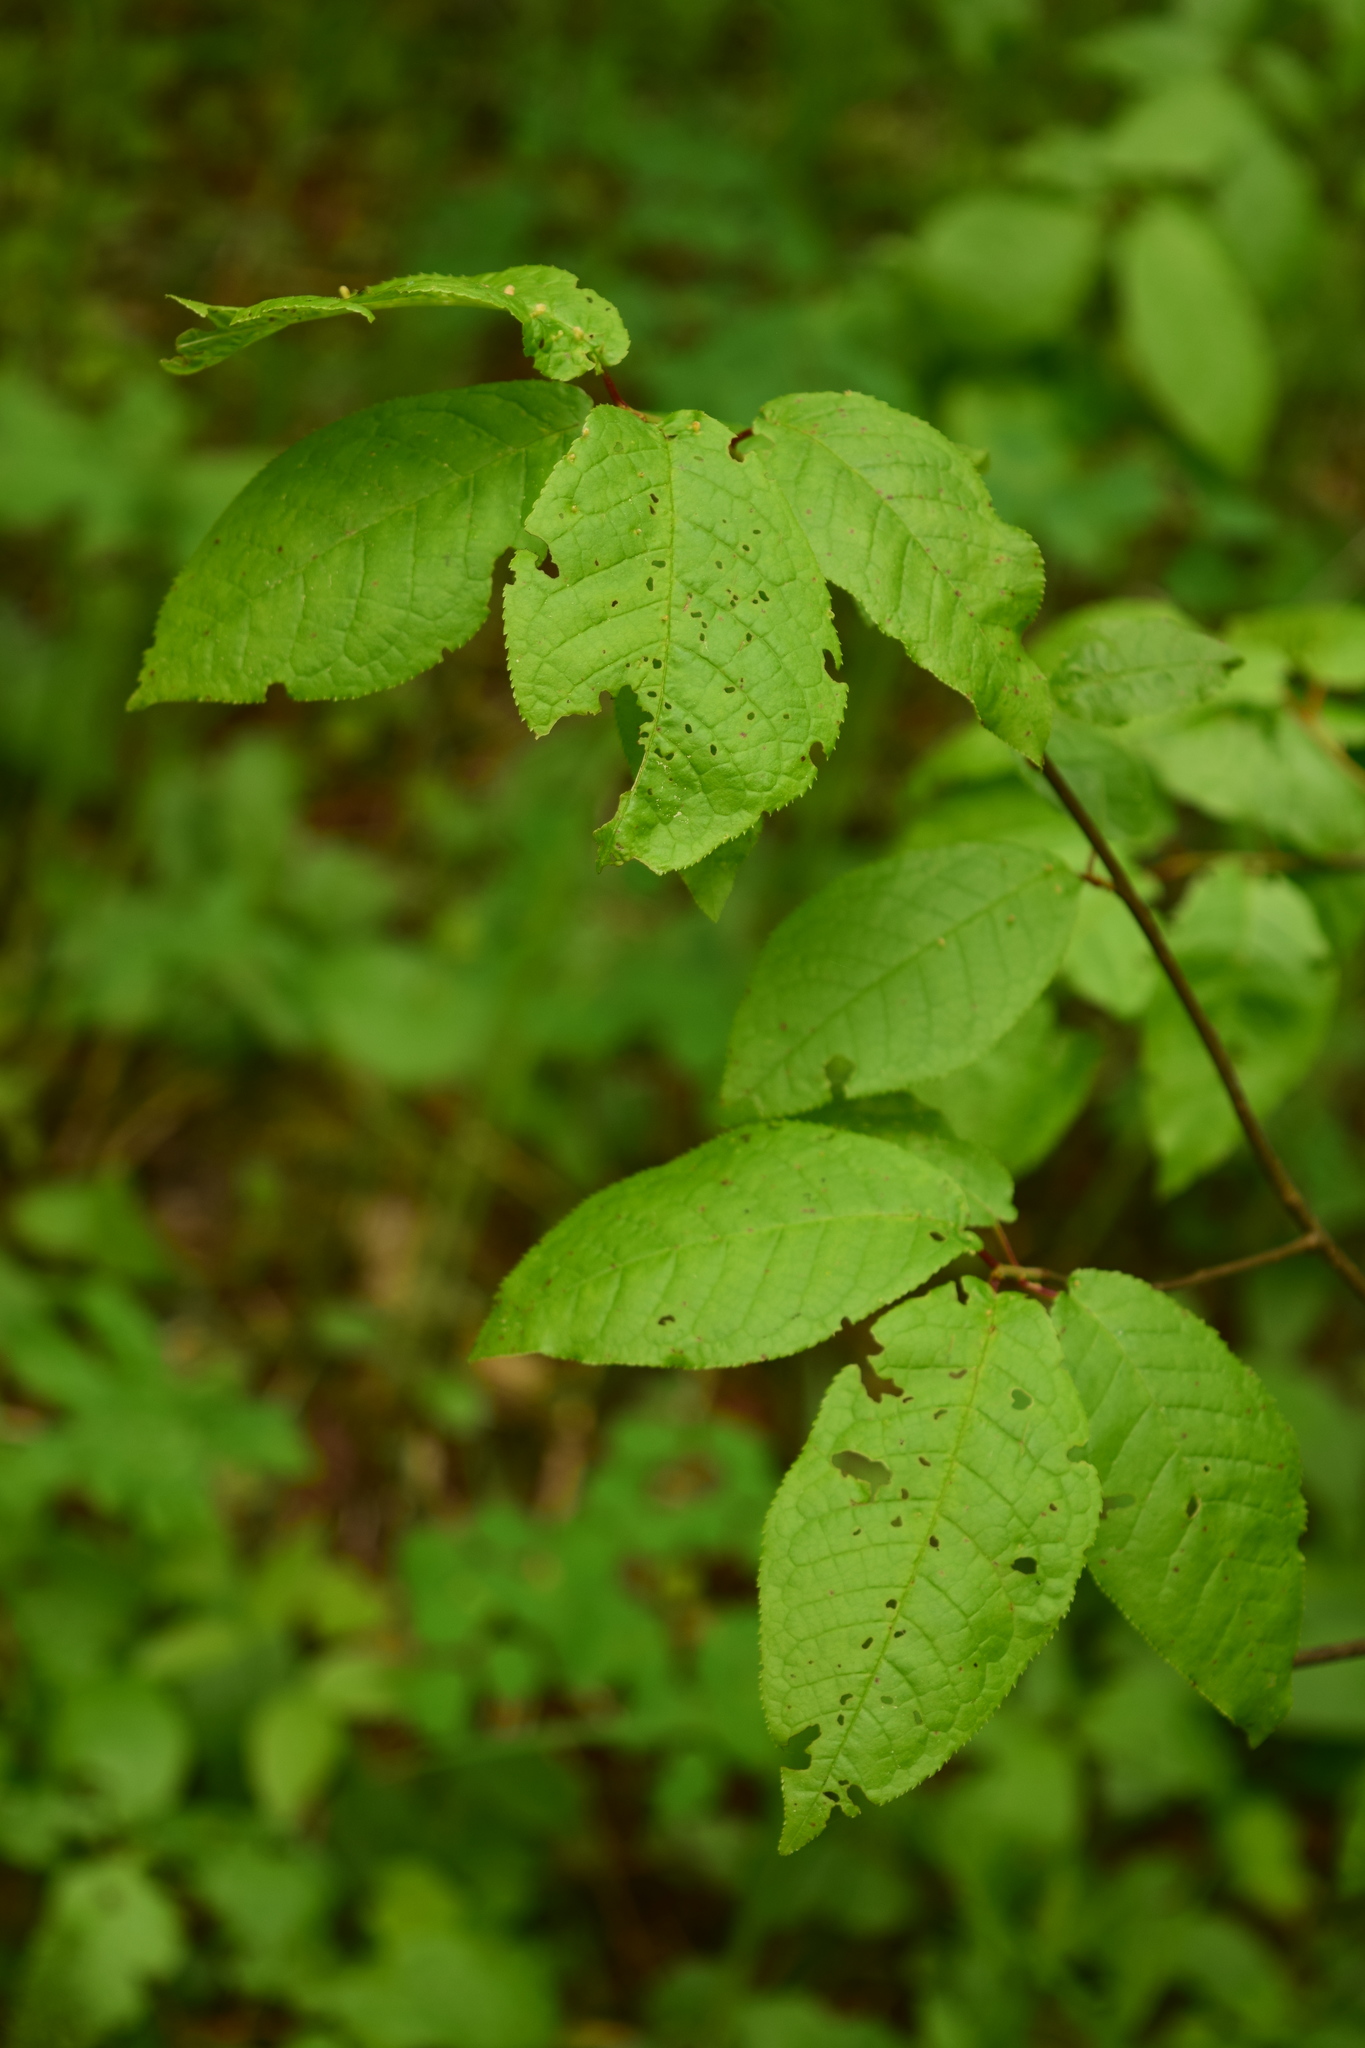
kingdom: Plantae
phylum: Tracheophyta
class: Magnoliopsida
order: Rosales
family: Rosaceae
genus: Prunus
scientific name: Prunus padus
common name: Bird cherry
